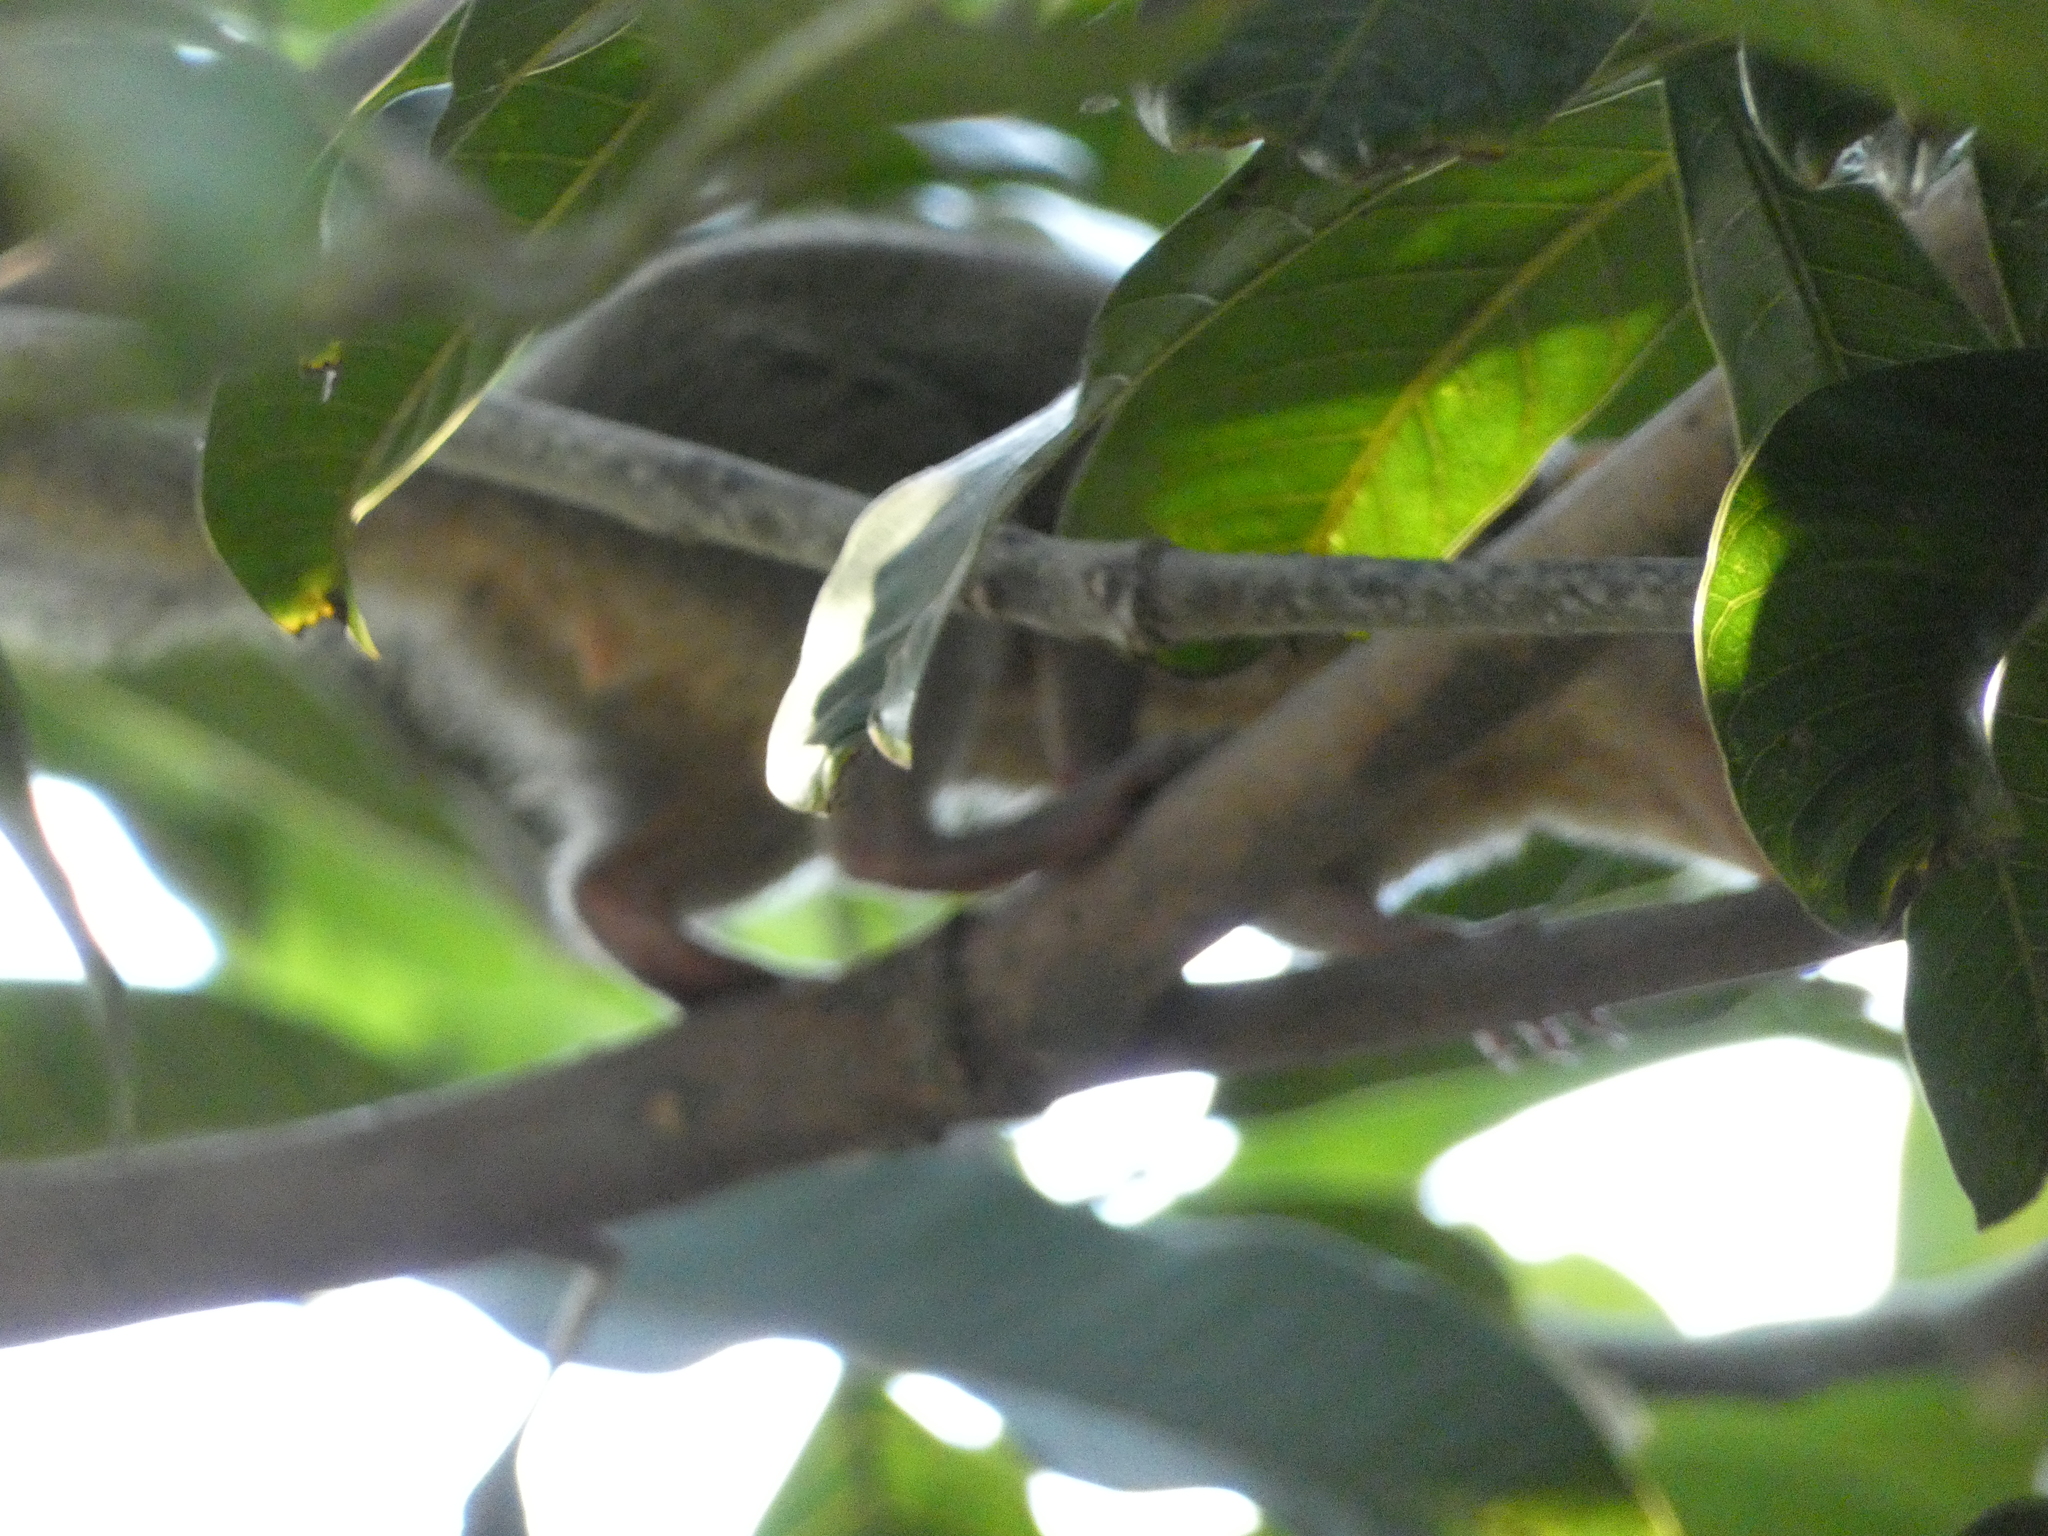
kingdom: Animalia
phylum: Chordata
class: Mammalia
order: Scandentia
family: Tupaiidae
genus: Tupaia
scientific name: Tupaia belangeri
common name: Northern treeshrew
